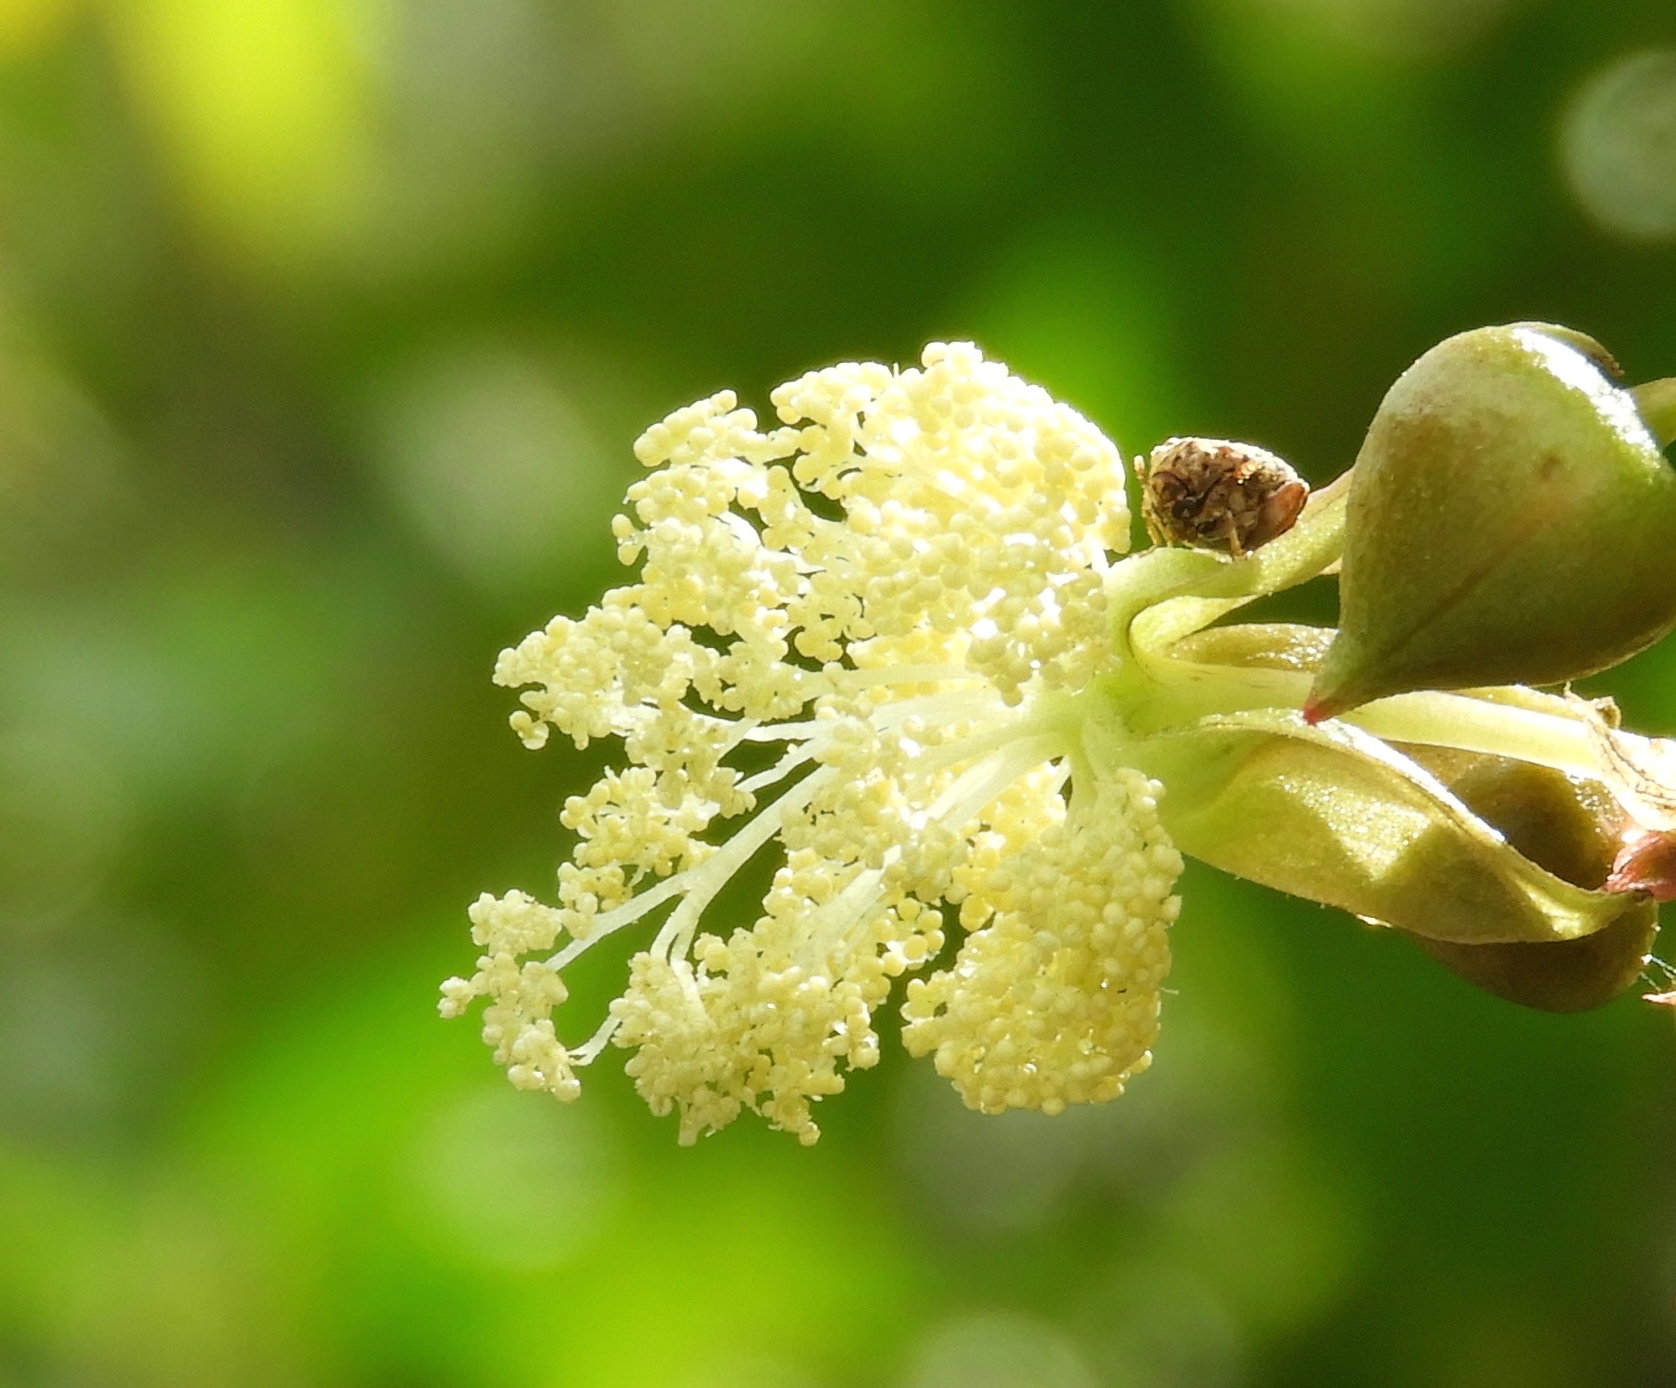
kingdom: Plantae
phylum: Tracheophyta
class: Magnoliopsida
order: Malpighiales
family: Euphorbiaceae
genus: Ricinus
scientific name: Ricinus communis
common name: Castor-oil-plant
